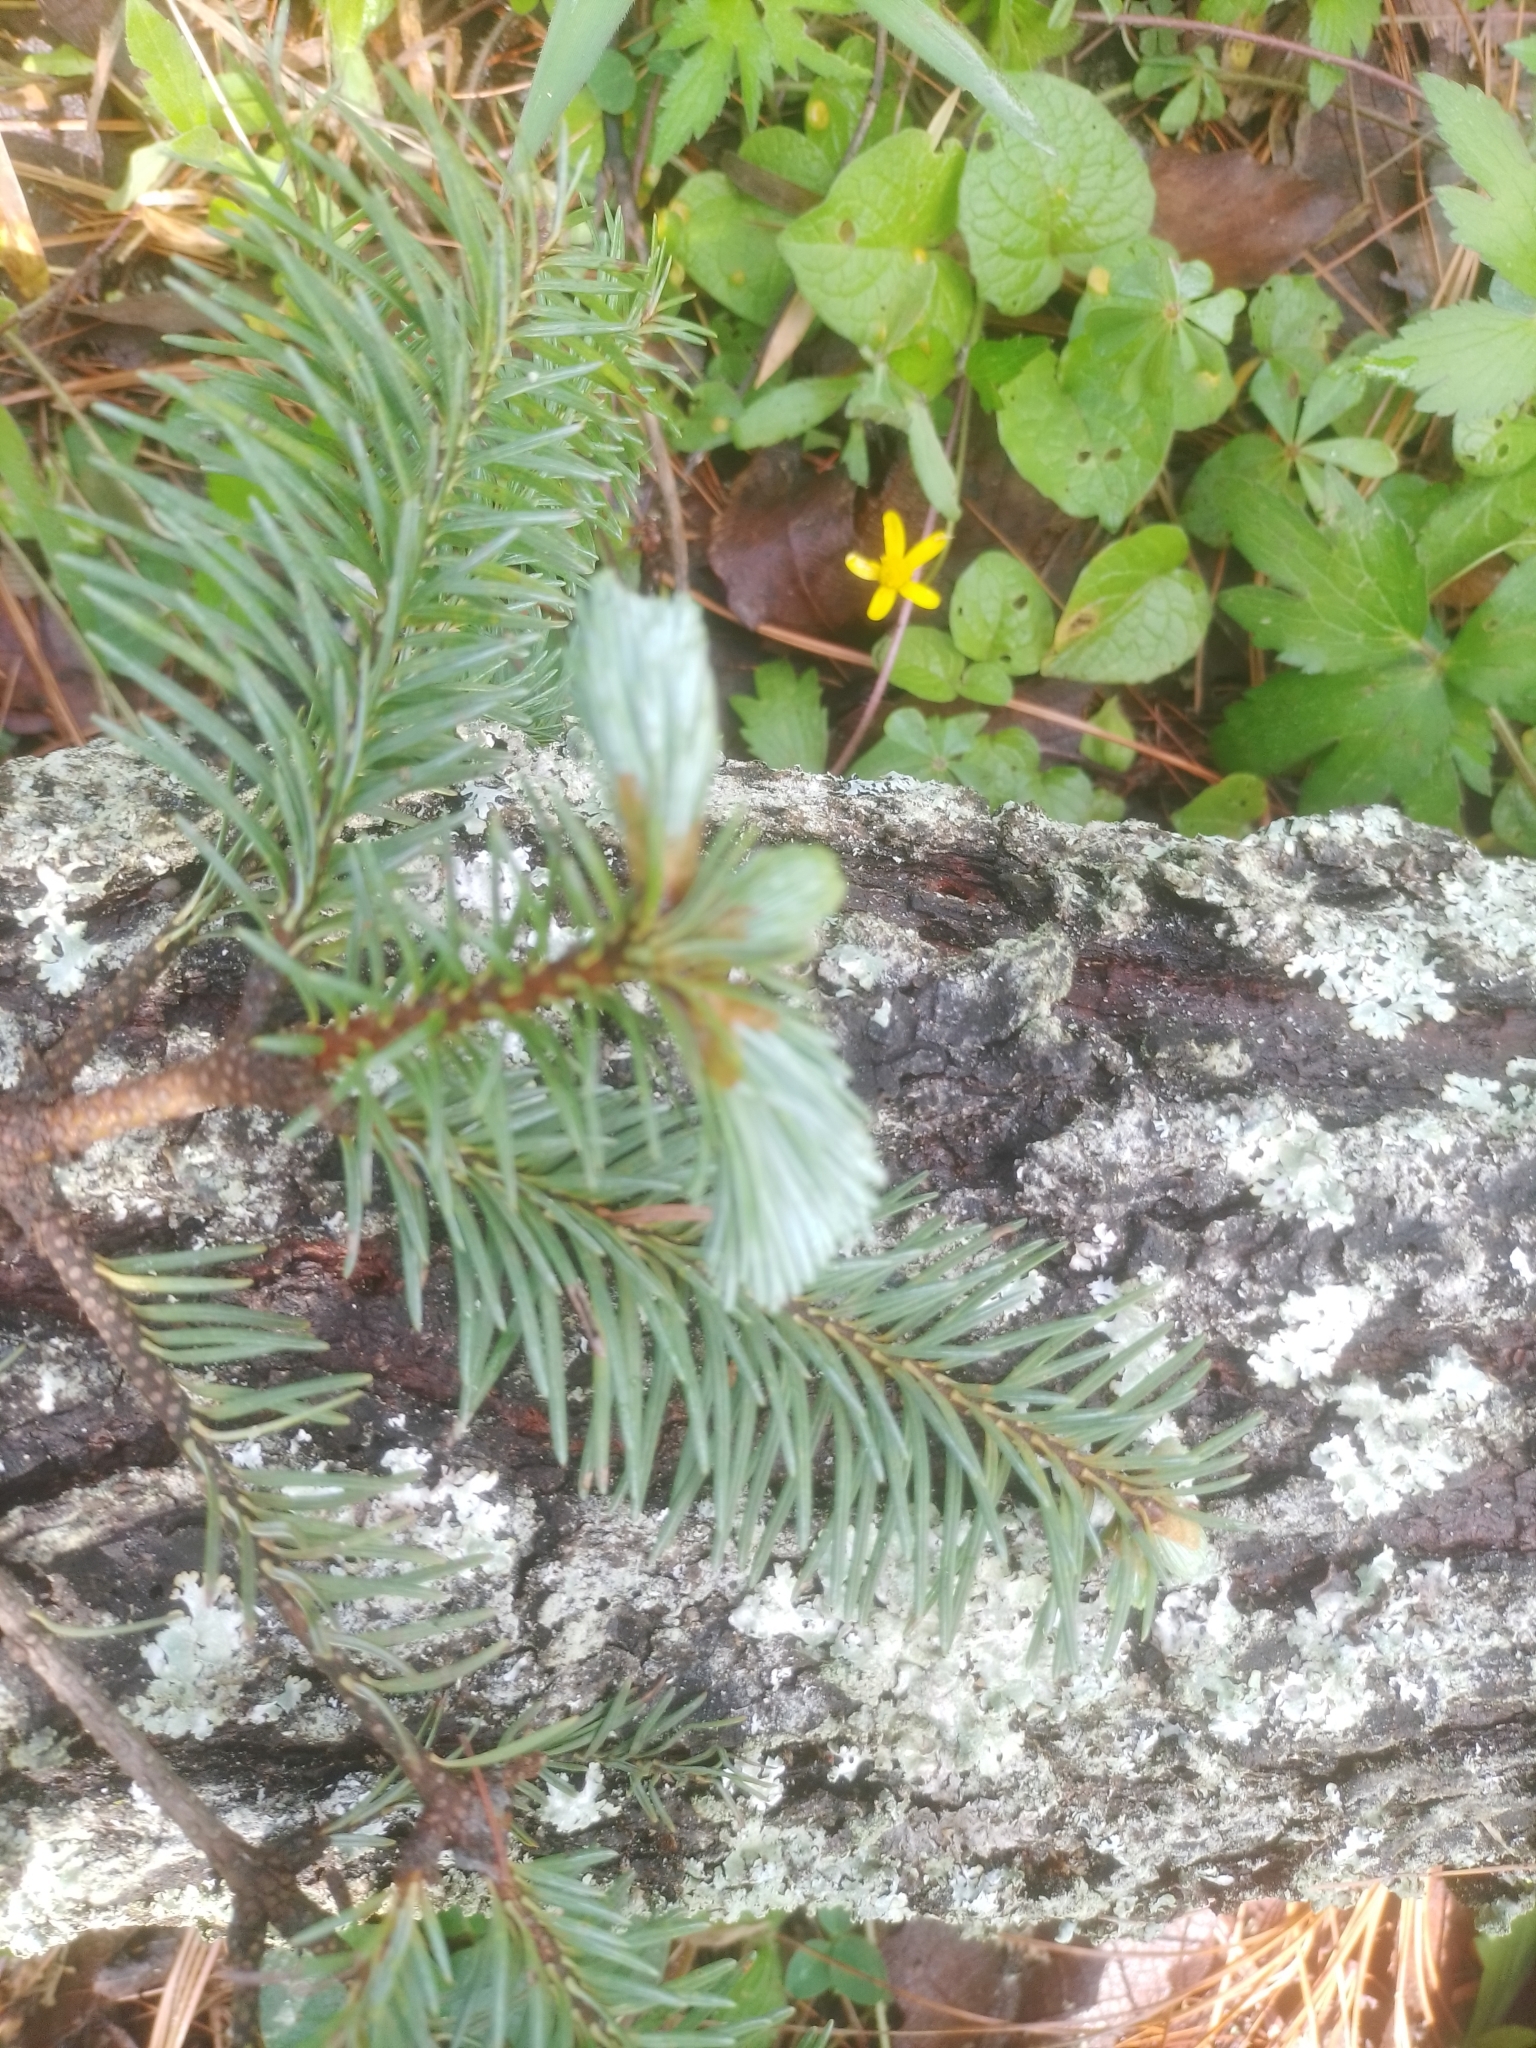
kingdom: Plantae
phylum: Tracheophyta
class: Pinopsida
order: Pinales
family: Pinaceae
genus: Abies
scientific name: Abies religiosa
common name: Sacred fir
